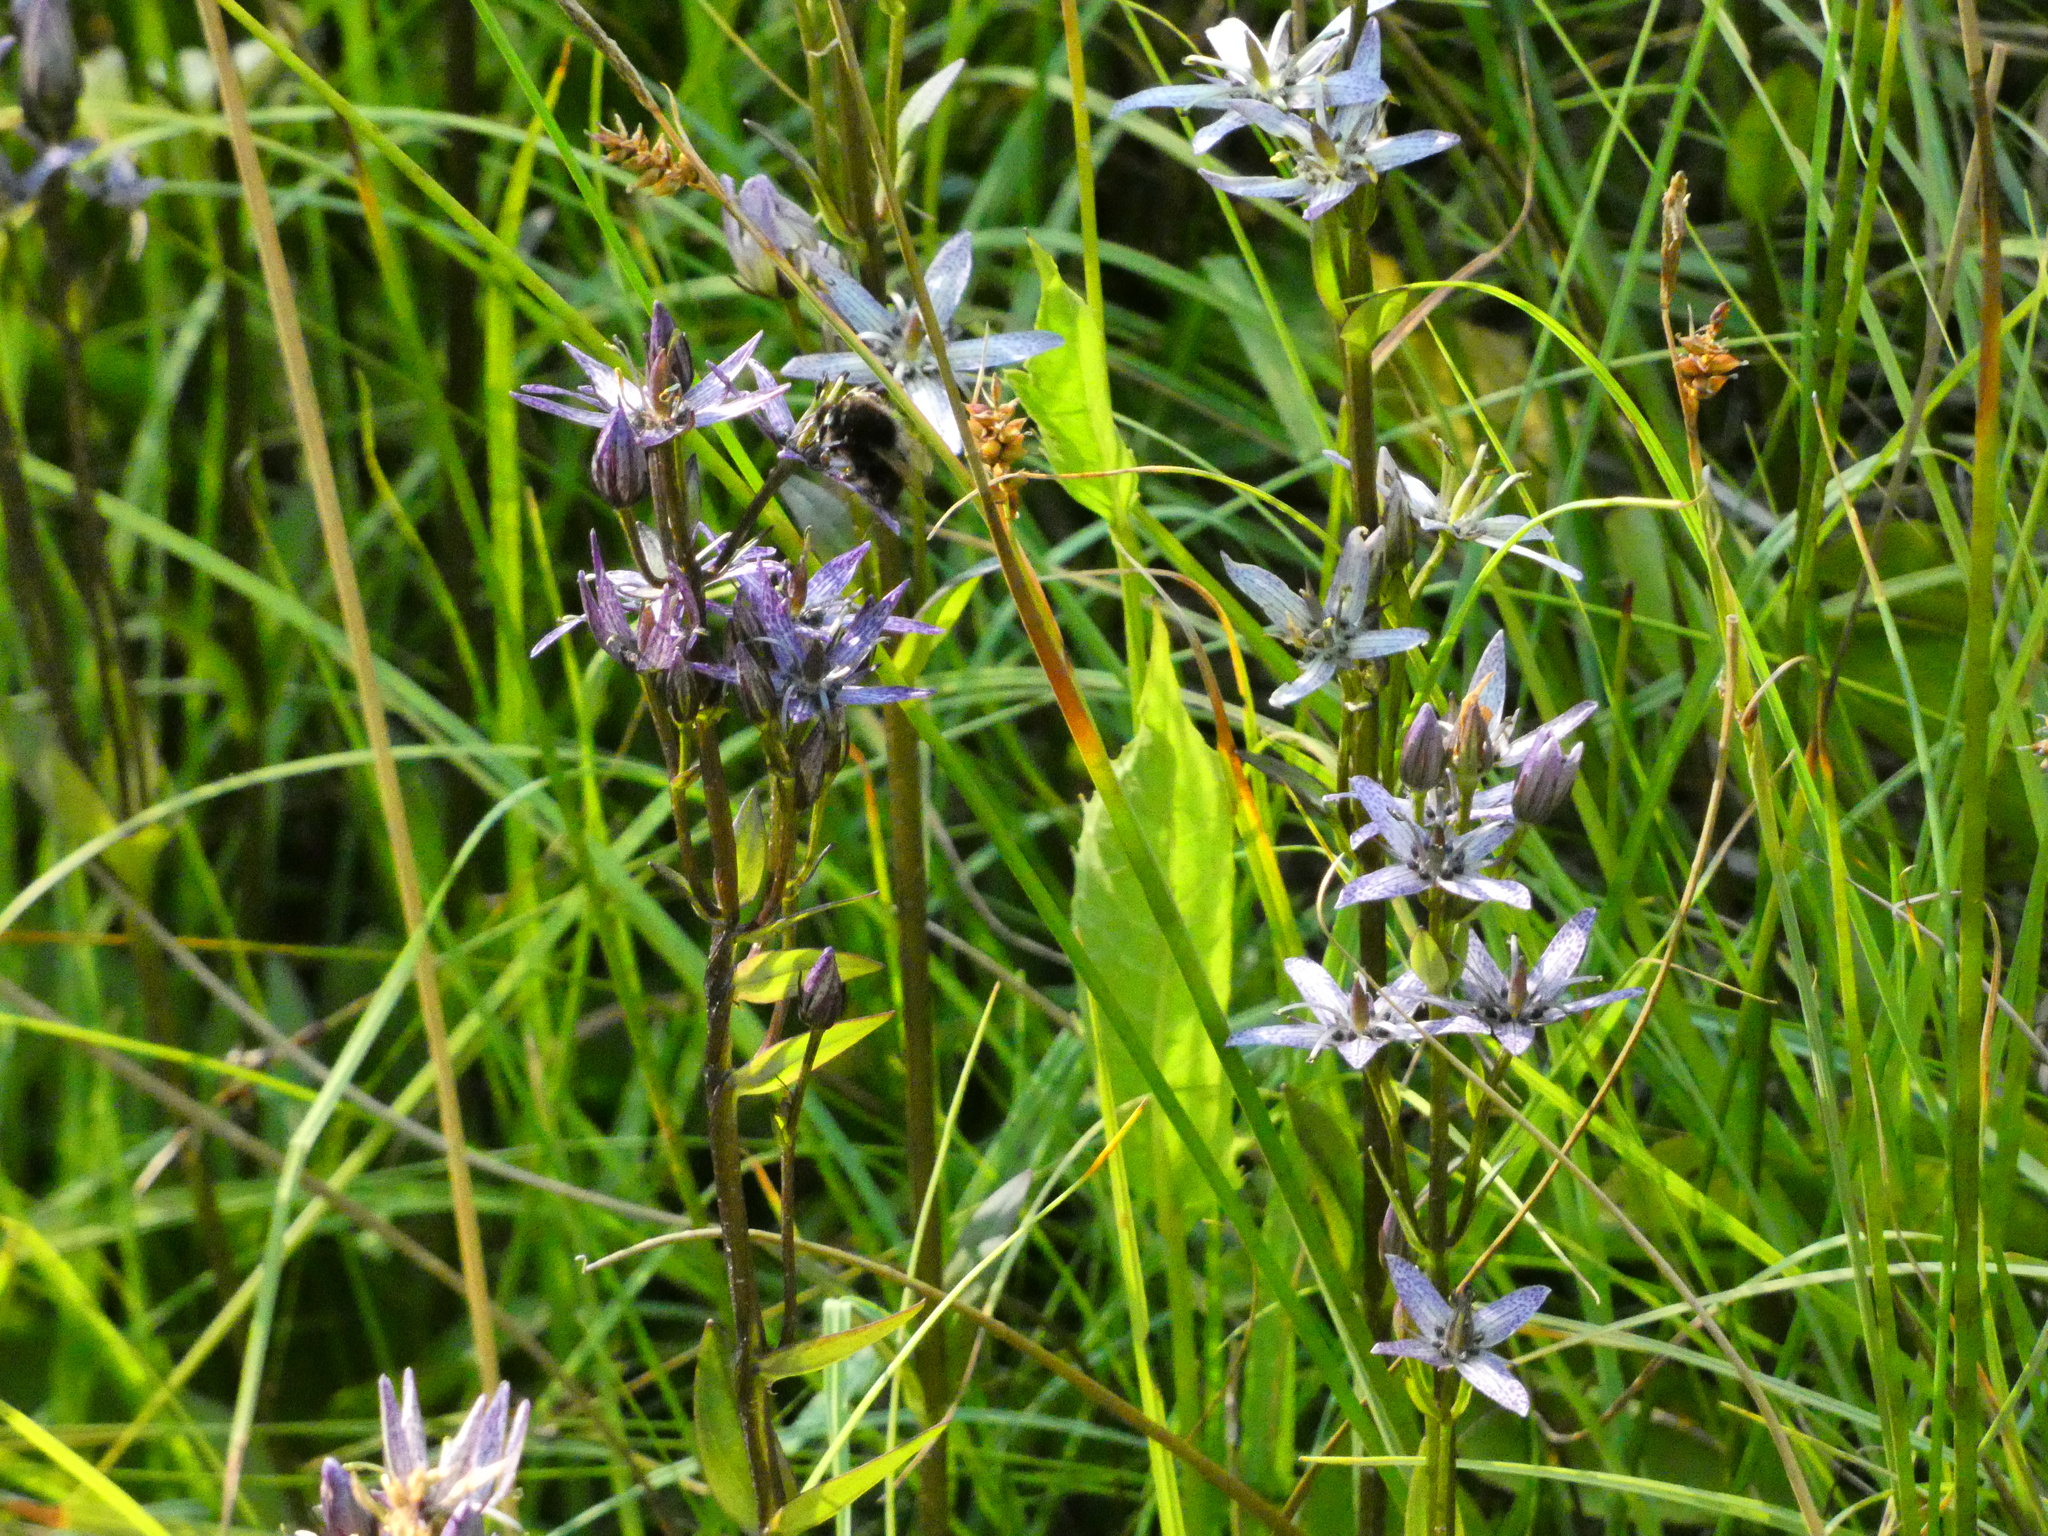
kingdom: Plantae
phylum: Tracheophyta
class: Magnoliopsida
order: Gentianales
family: Gentianaceae
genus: Swertia
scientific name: Swertia perennis
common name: Alpine bog swertia
